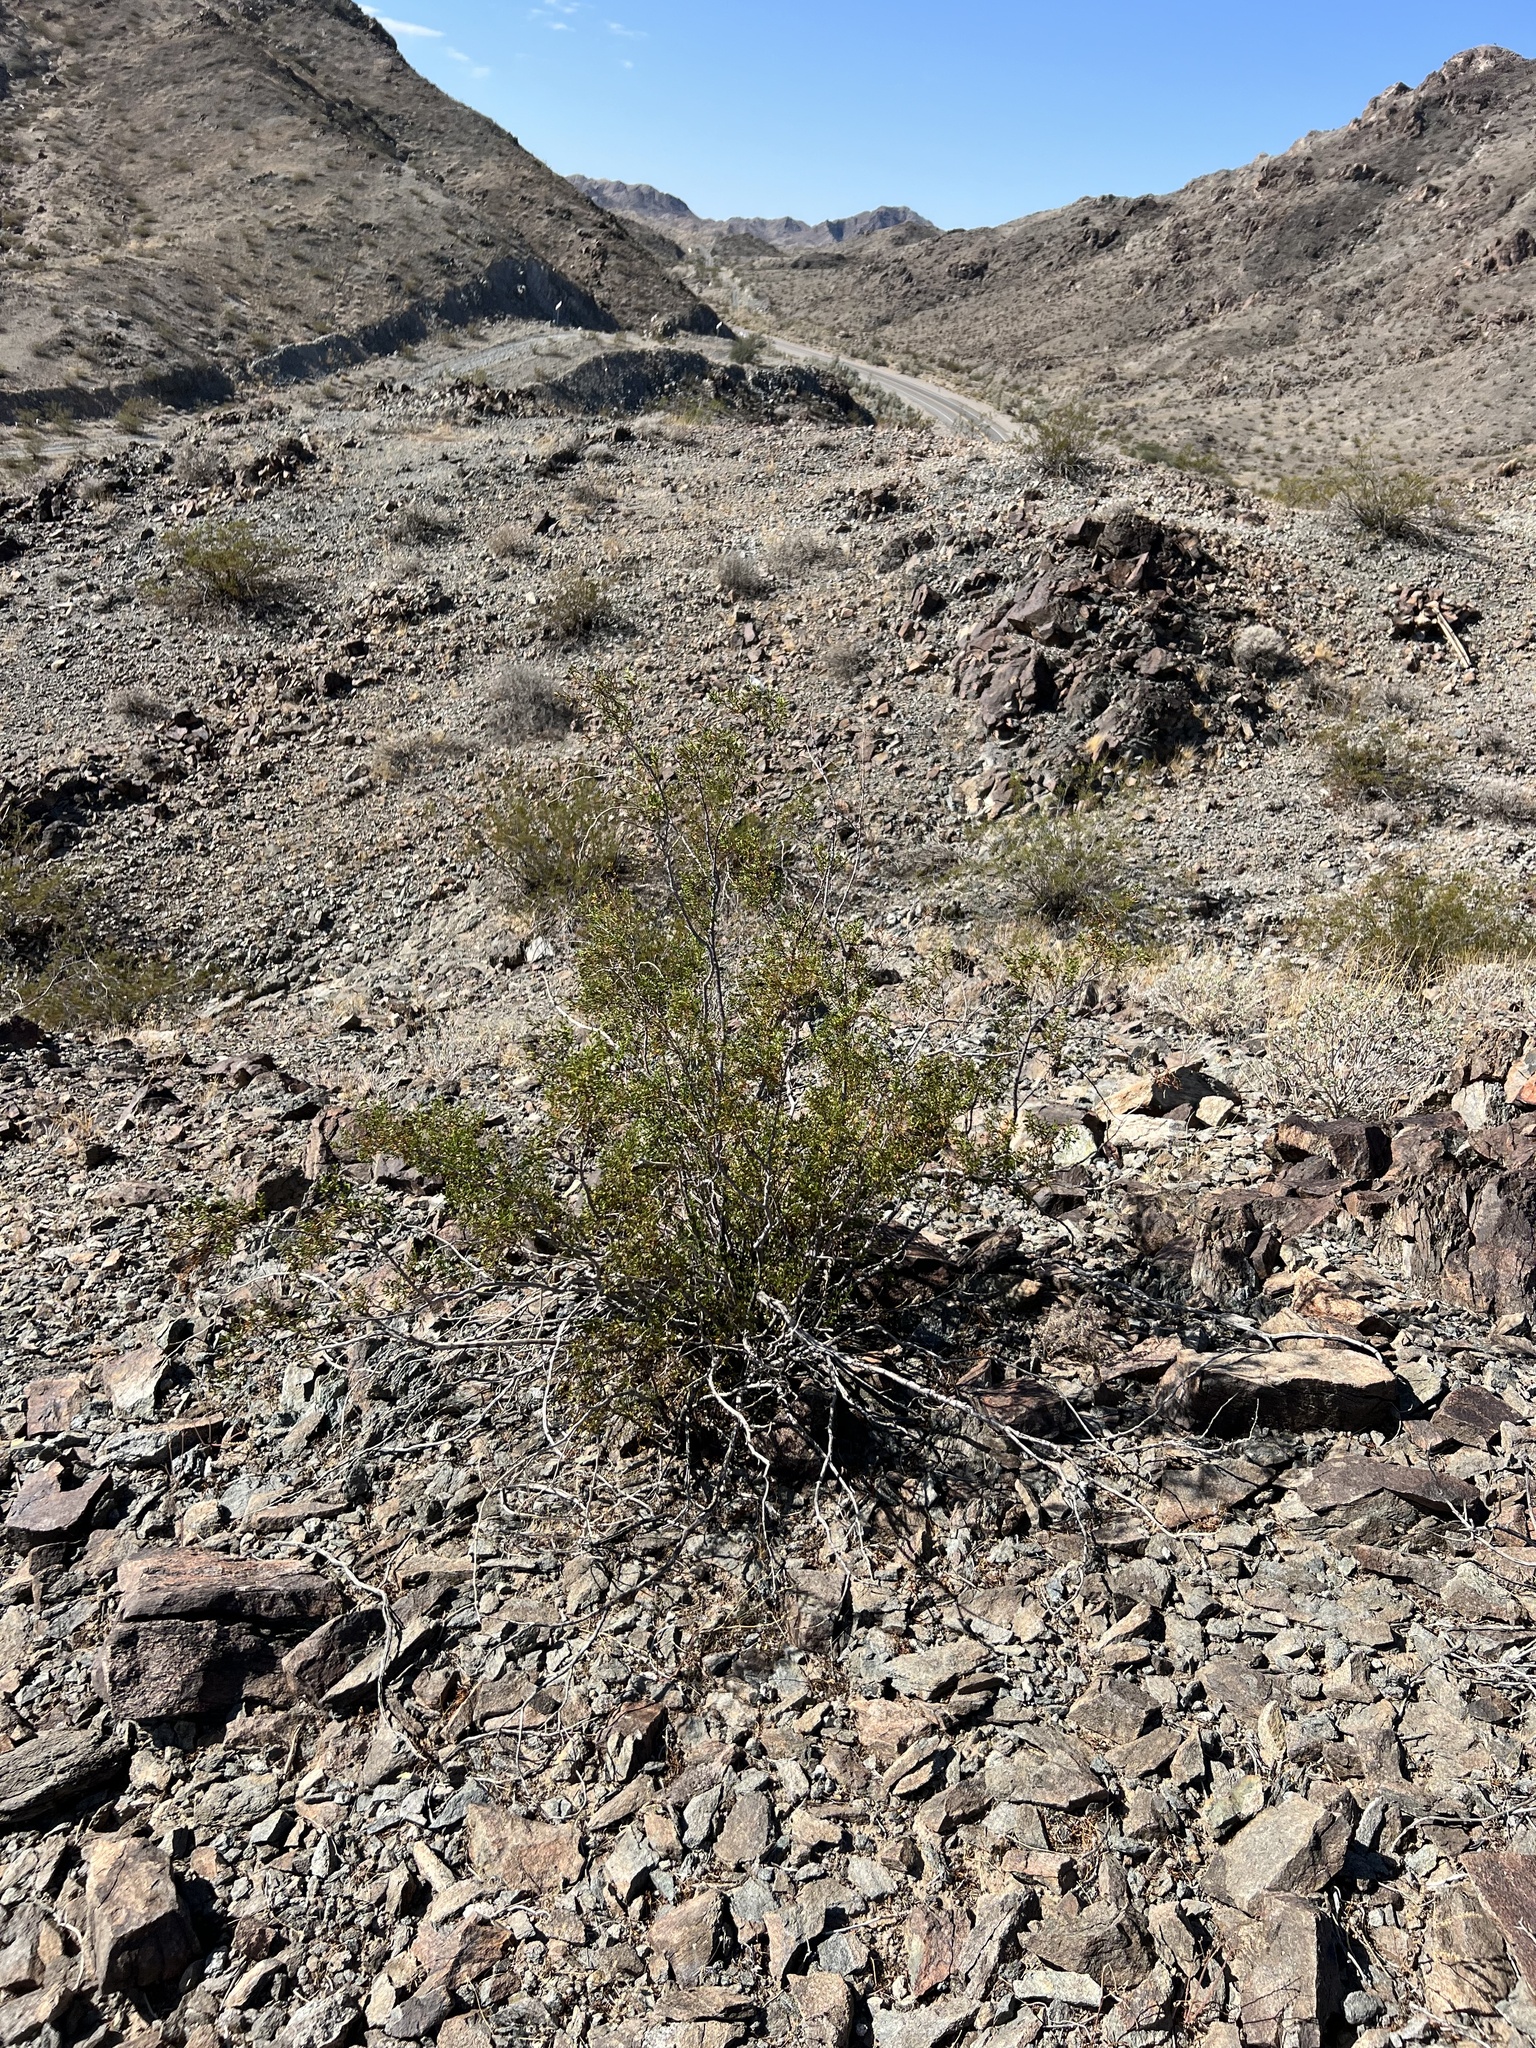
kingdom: Plantae
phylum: Tracheophyta
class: Magnoliopsida
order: Zygophyllales
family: Zygophyllaceae
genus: Larrea
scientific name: Larrea tridentata
